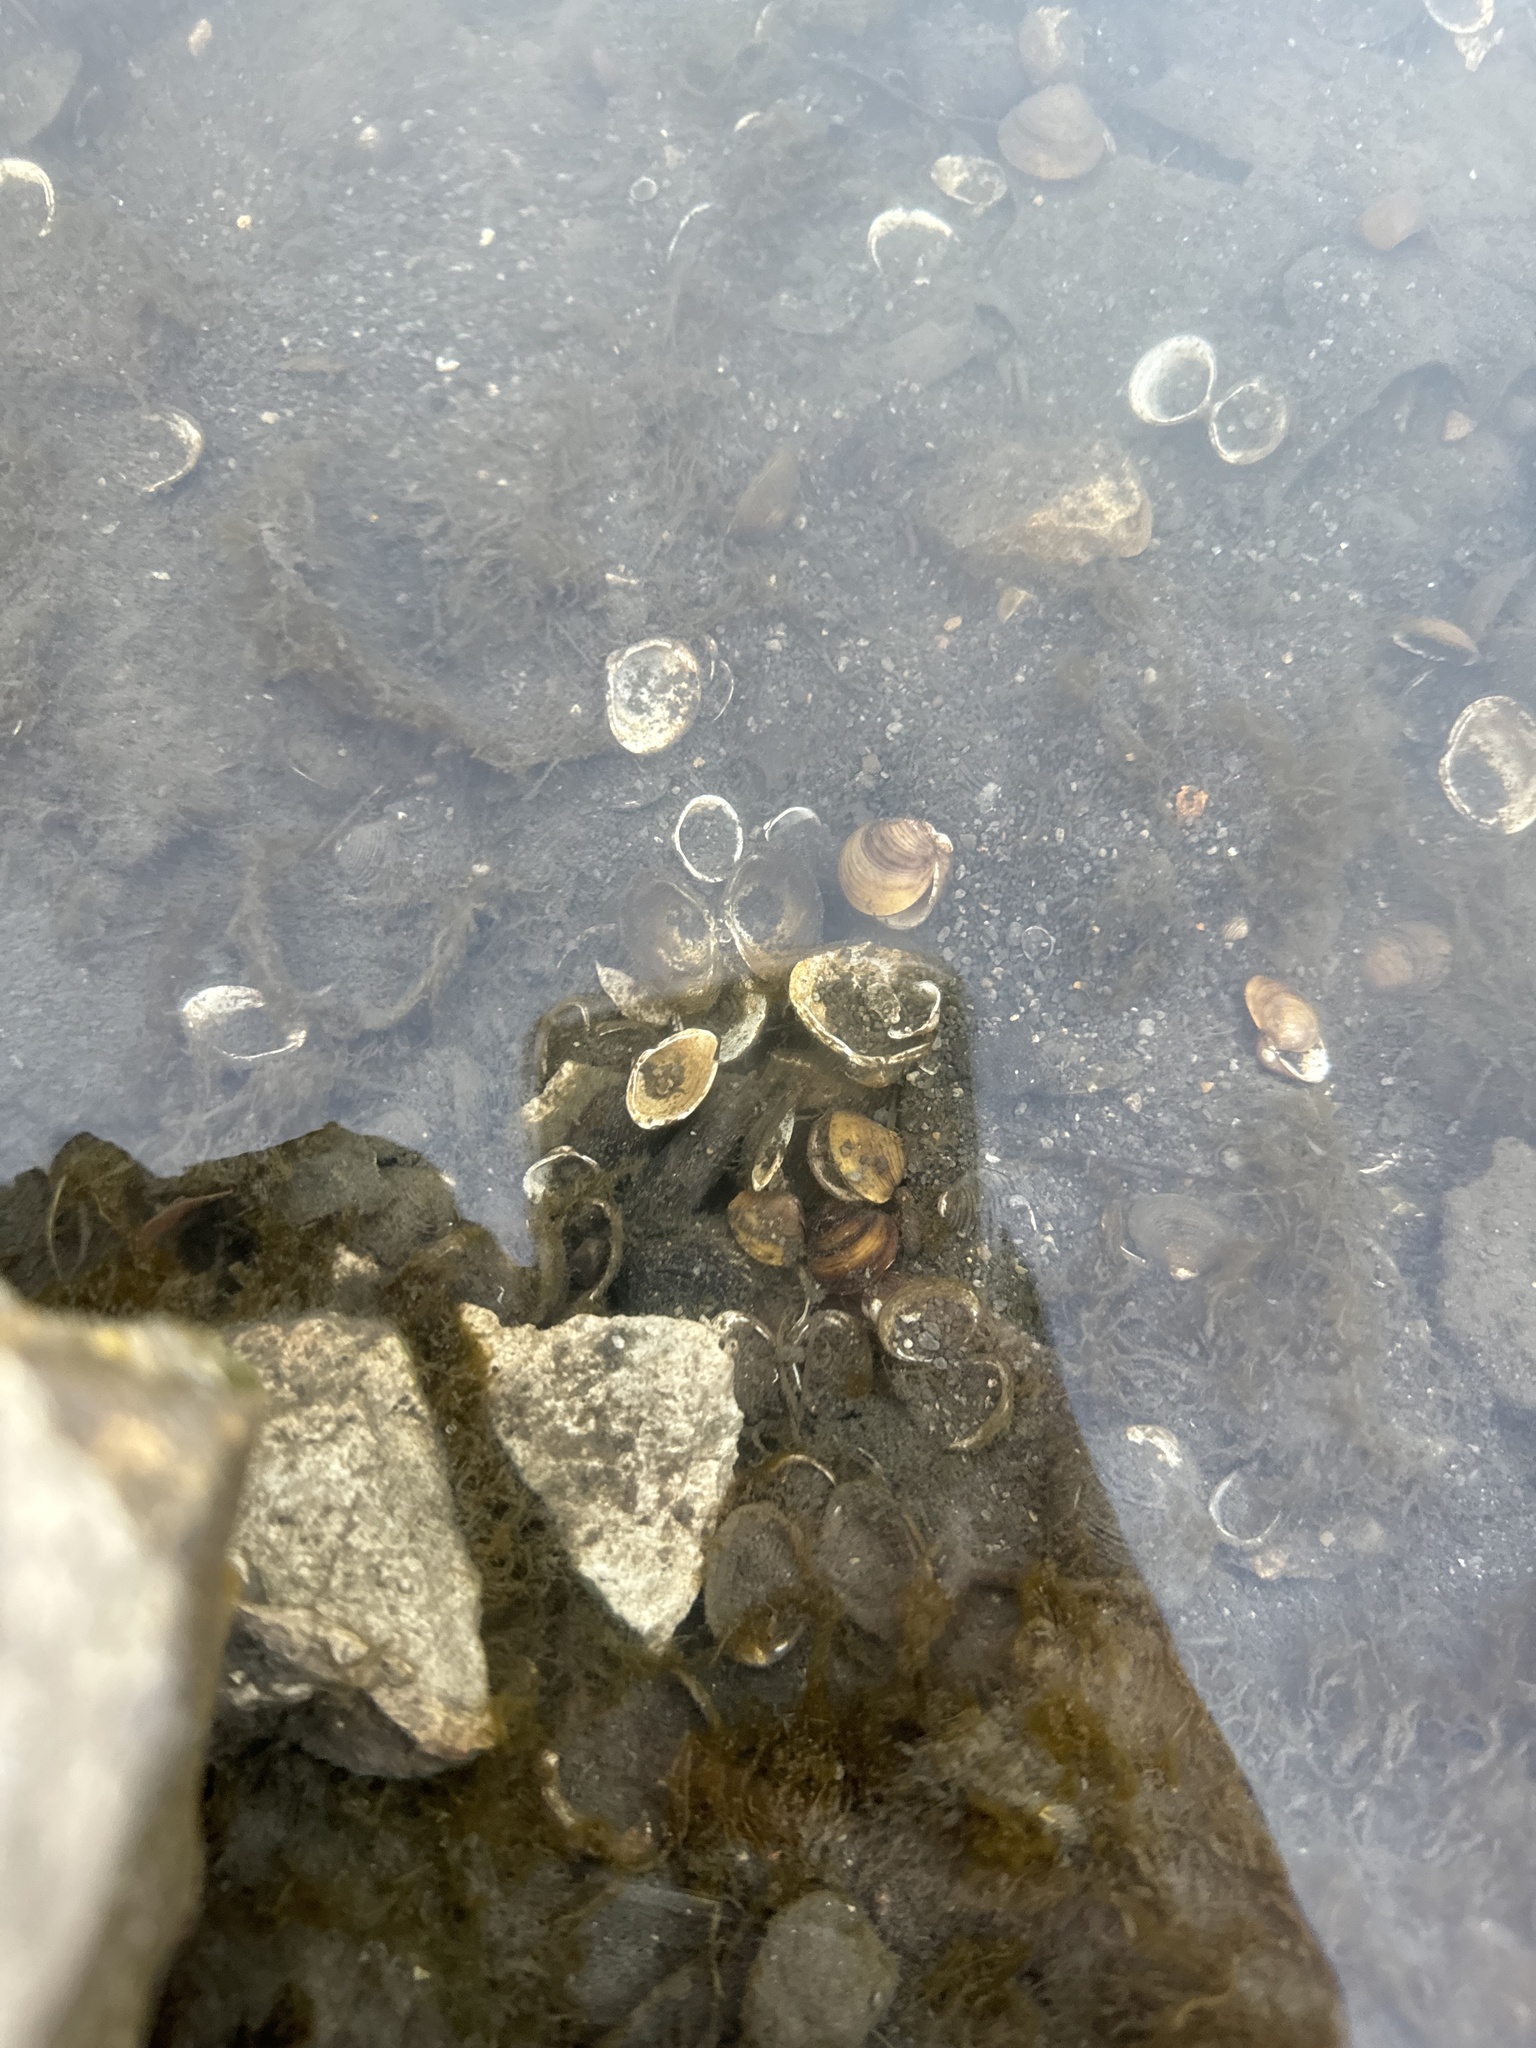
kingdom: Animalia
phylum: Mollusca
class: Bivalvia
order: Venerida
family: Cyrenidae
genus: Corbicula
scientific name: Corbicula fluminea
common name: Asian clam
